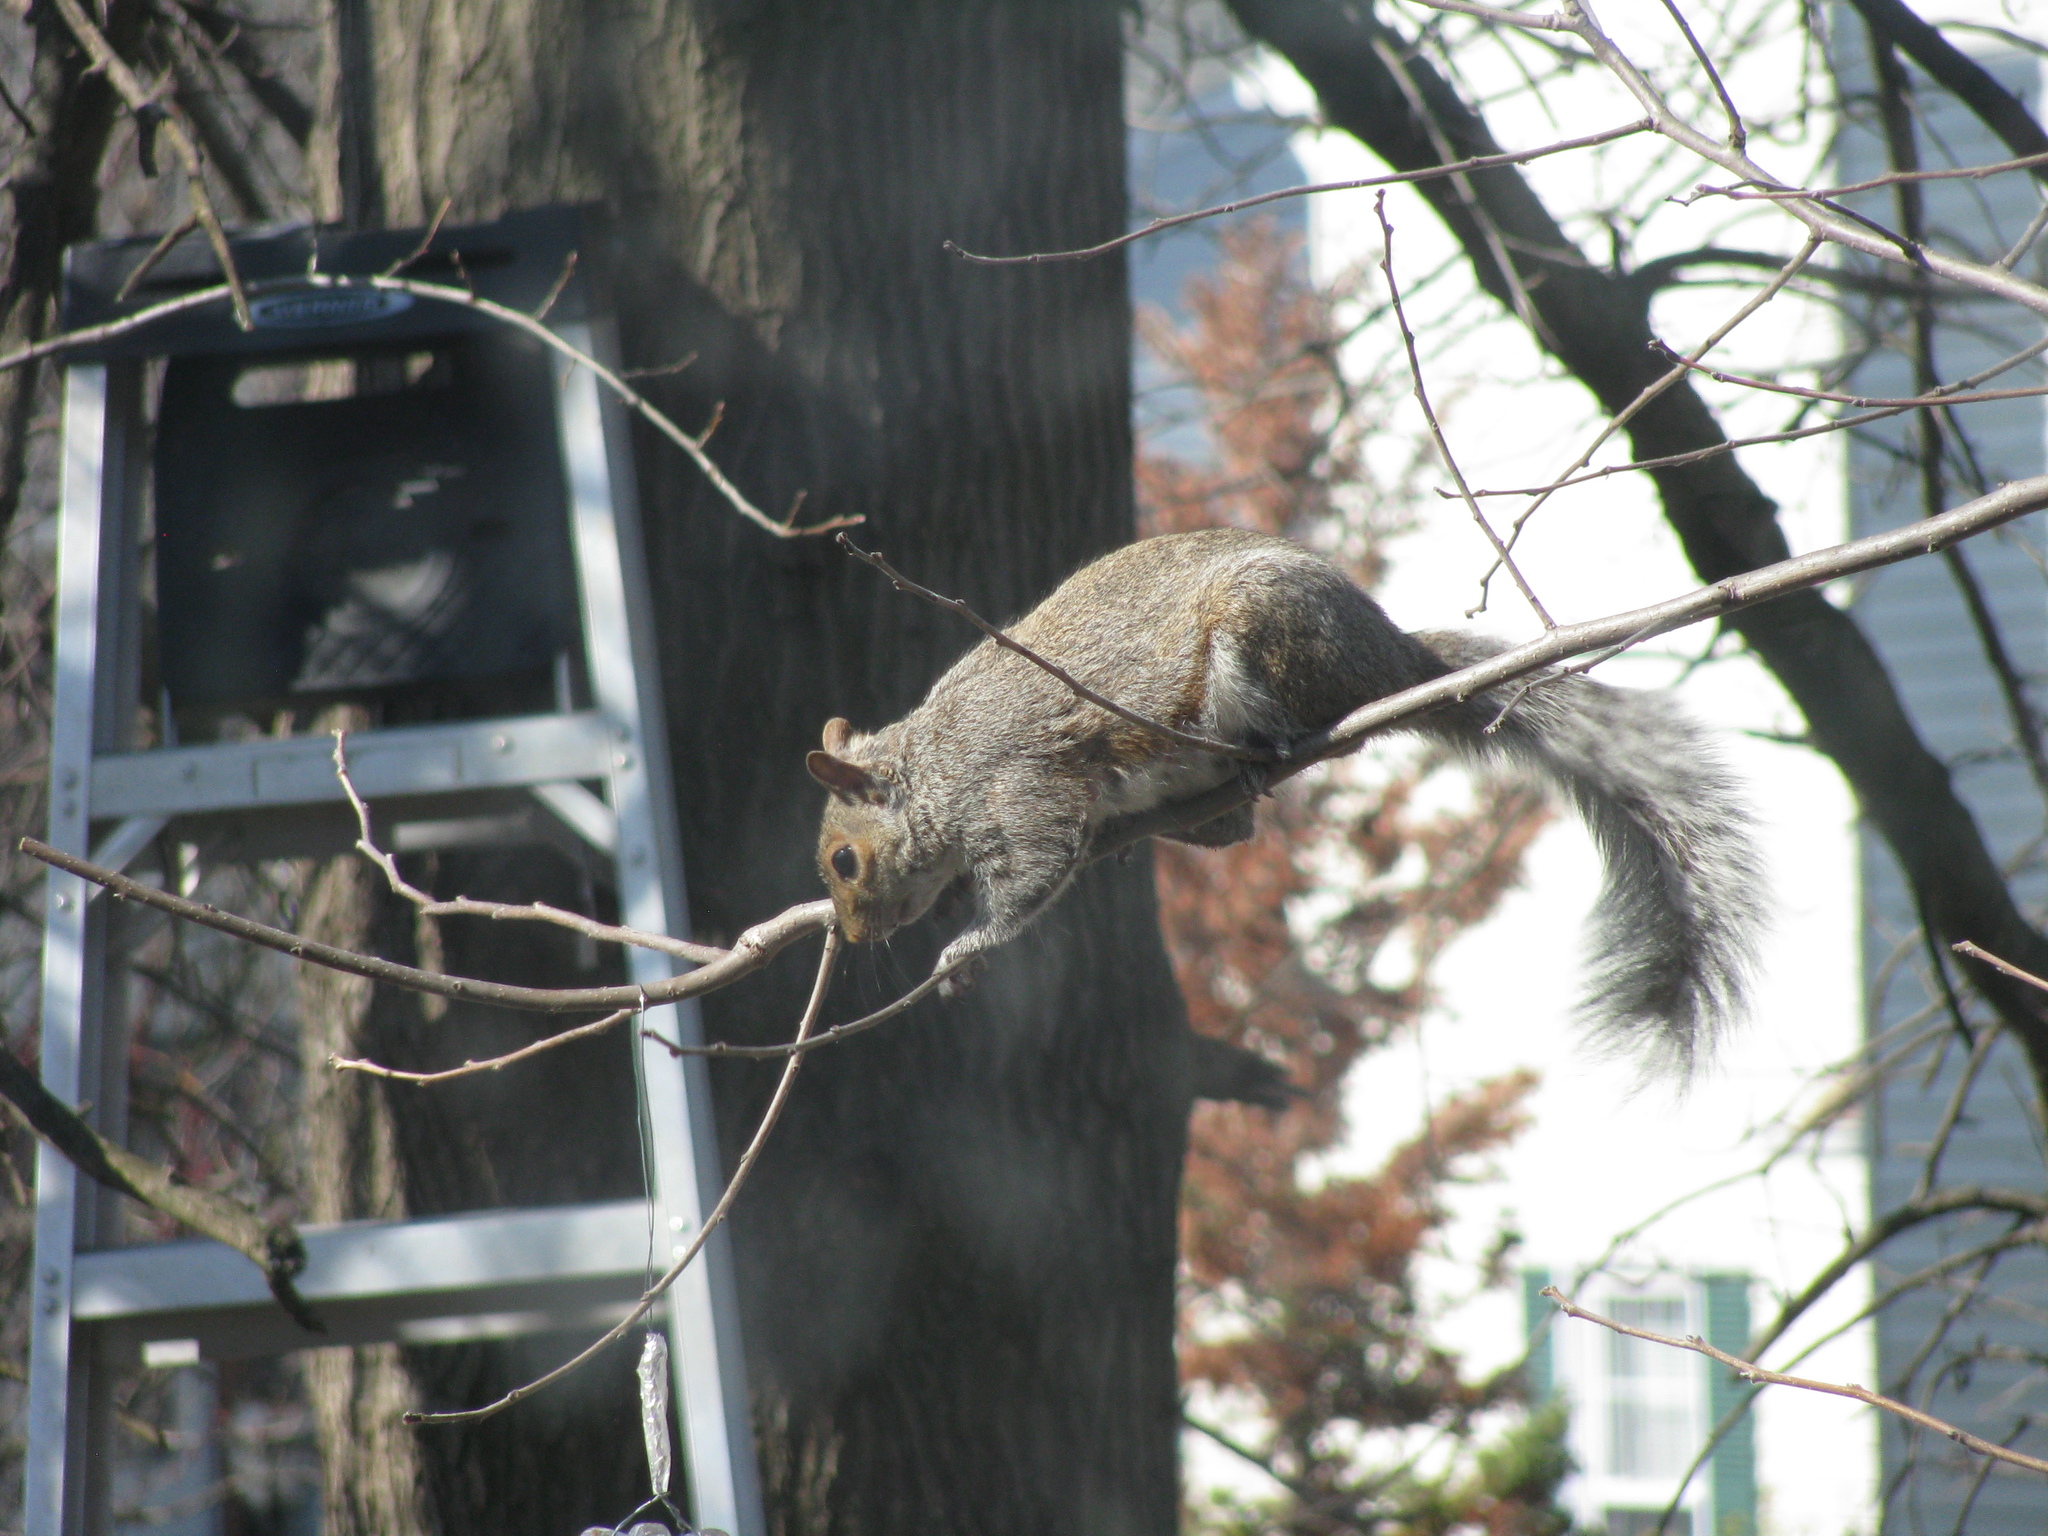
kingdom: Animalia
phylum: Chordata
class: Mammalia
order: Rodentia
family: Sciuridae
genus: Sciurus
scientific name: Sciurus carolinensis
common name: Eastern gray squirrel
